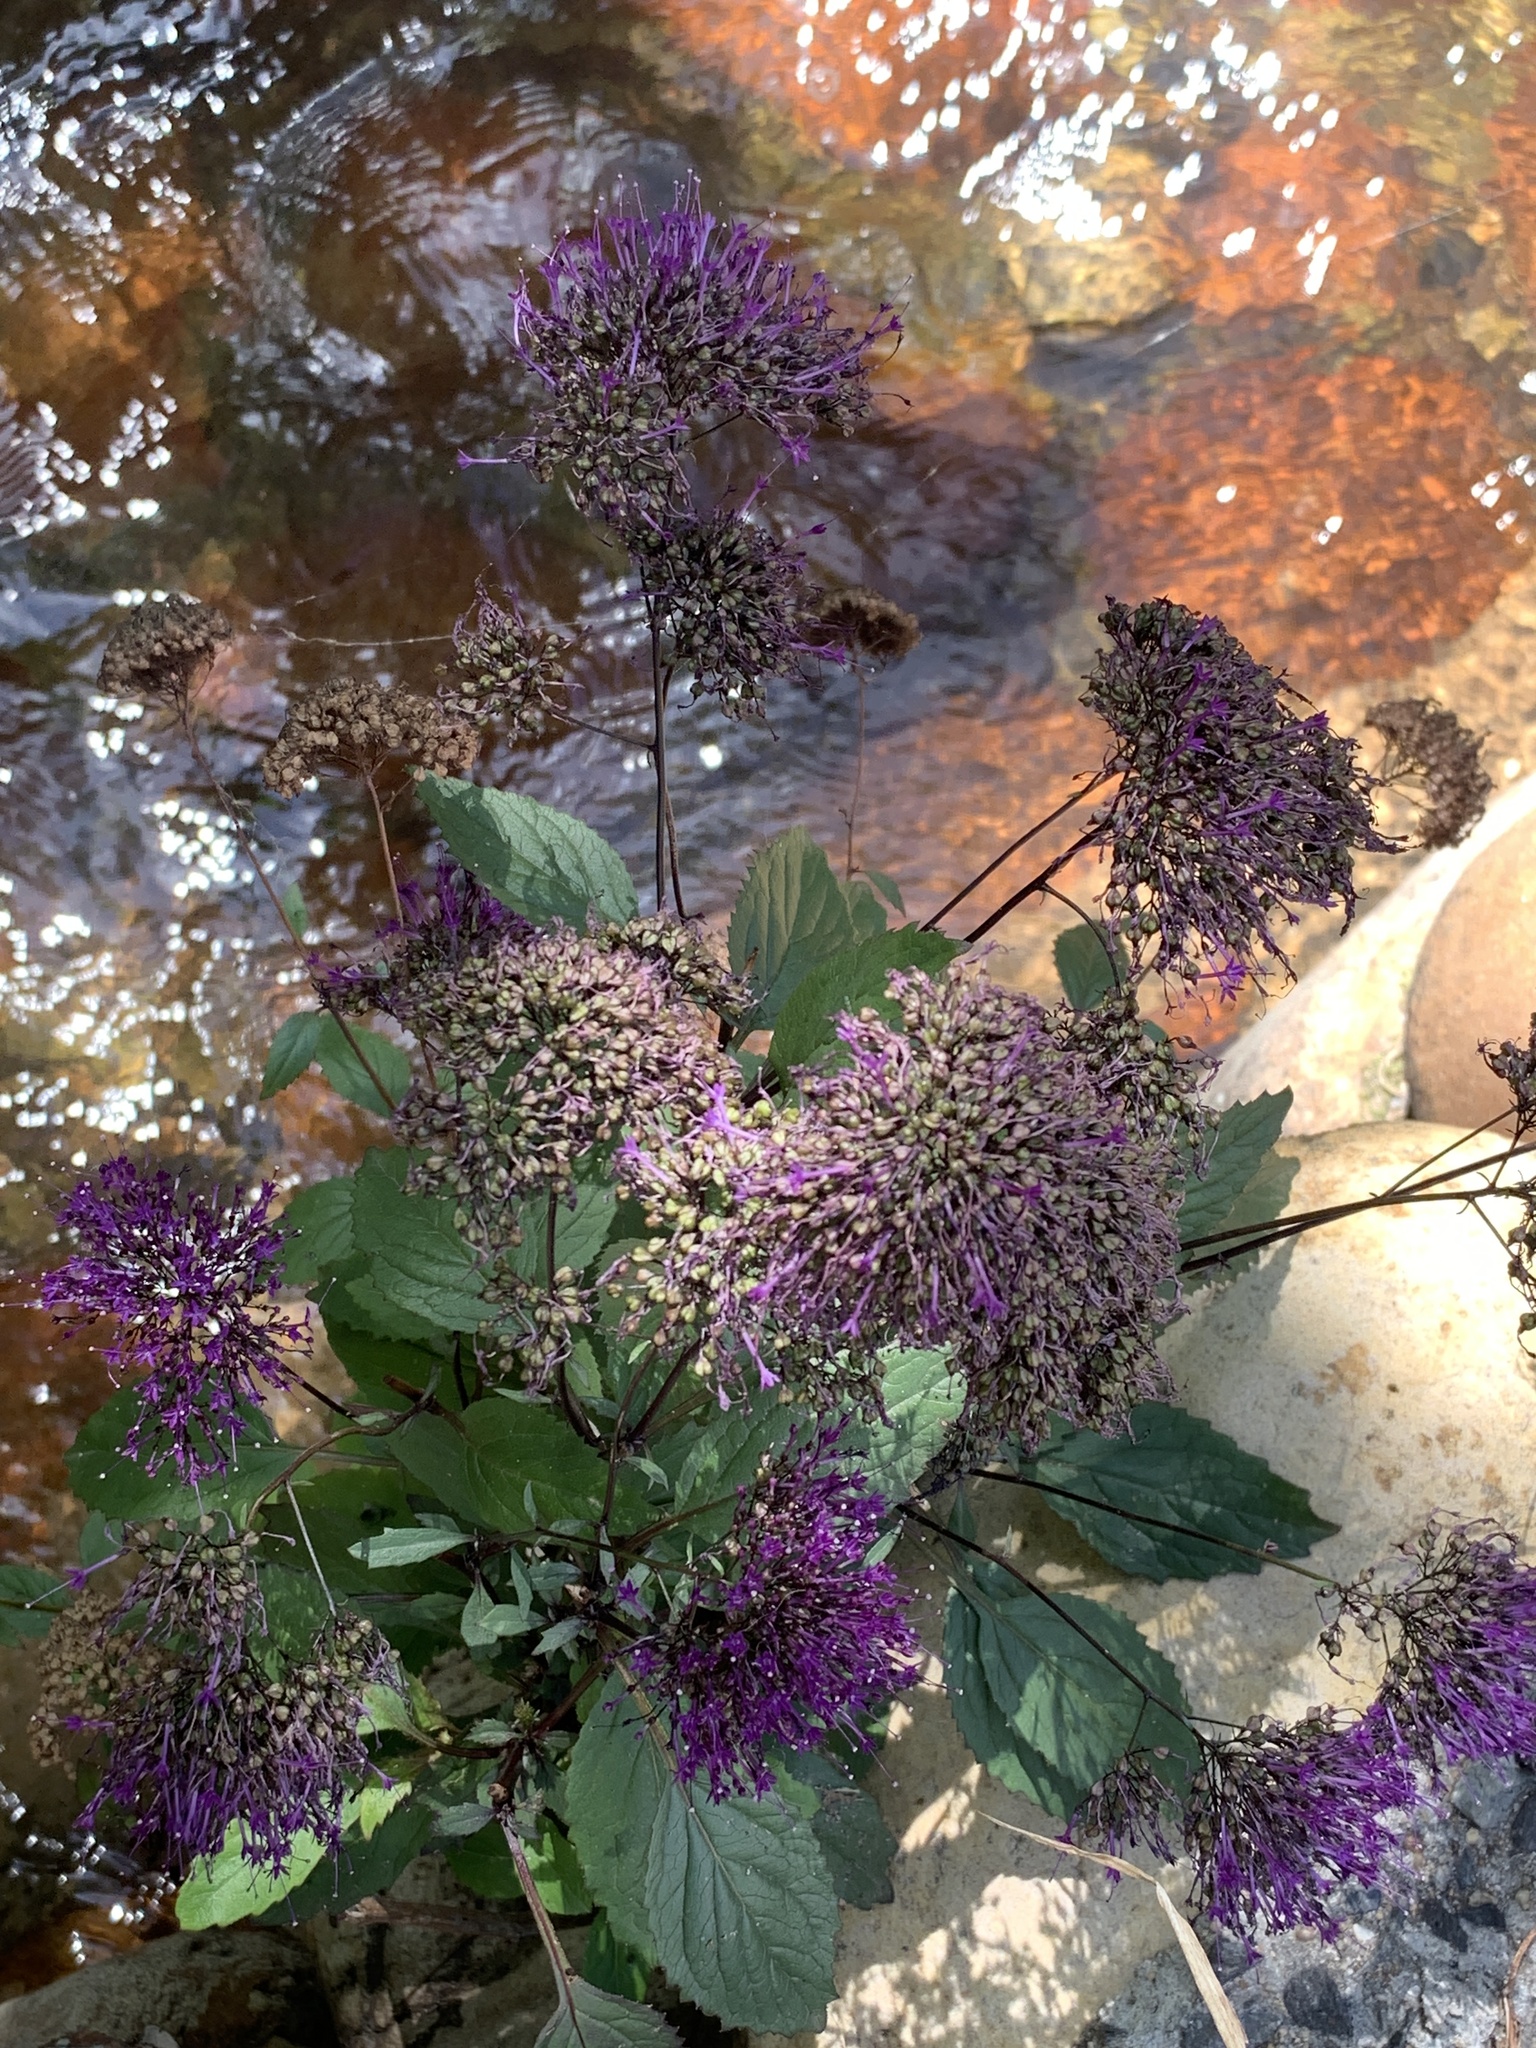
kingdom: Plantae
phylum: Tracheophyta
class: Magnoliopsida
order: Asterales
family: Campanulaceae
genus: Trachelium
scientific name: Trachelium caeruleum
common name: Throatwort
